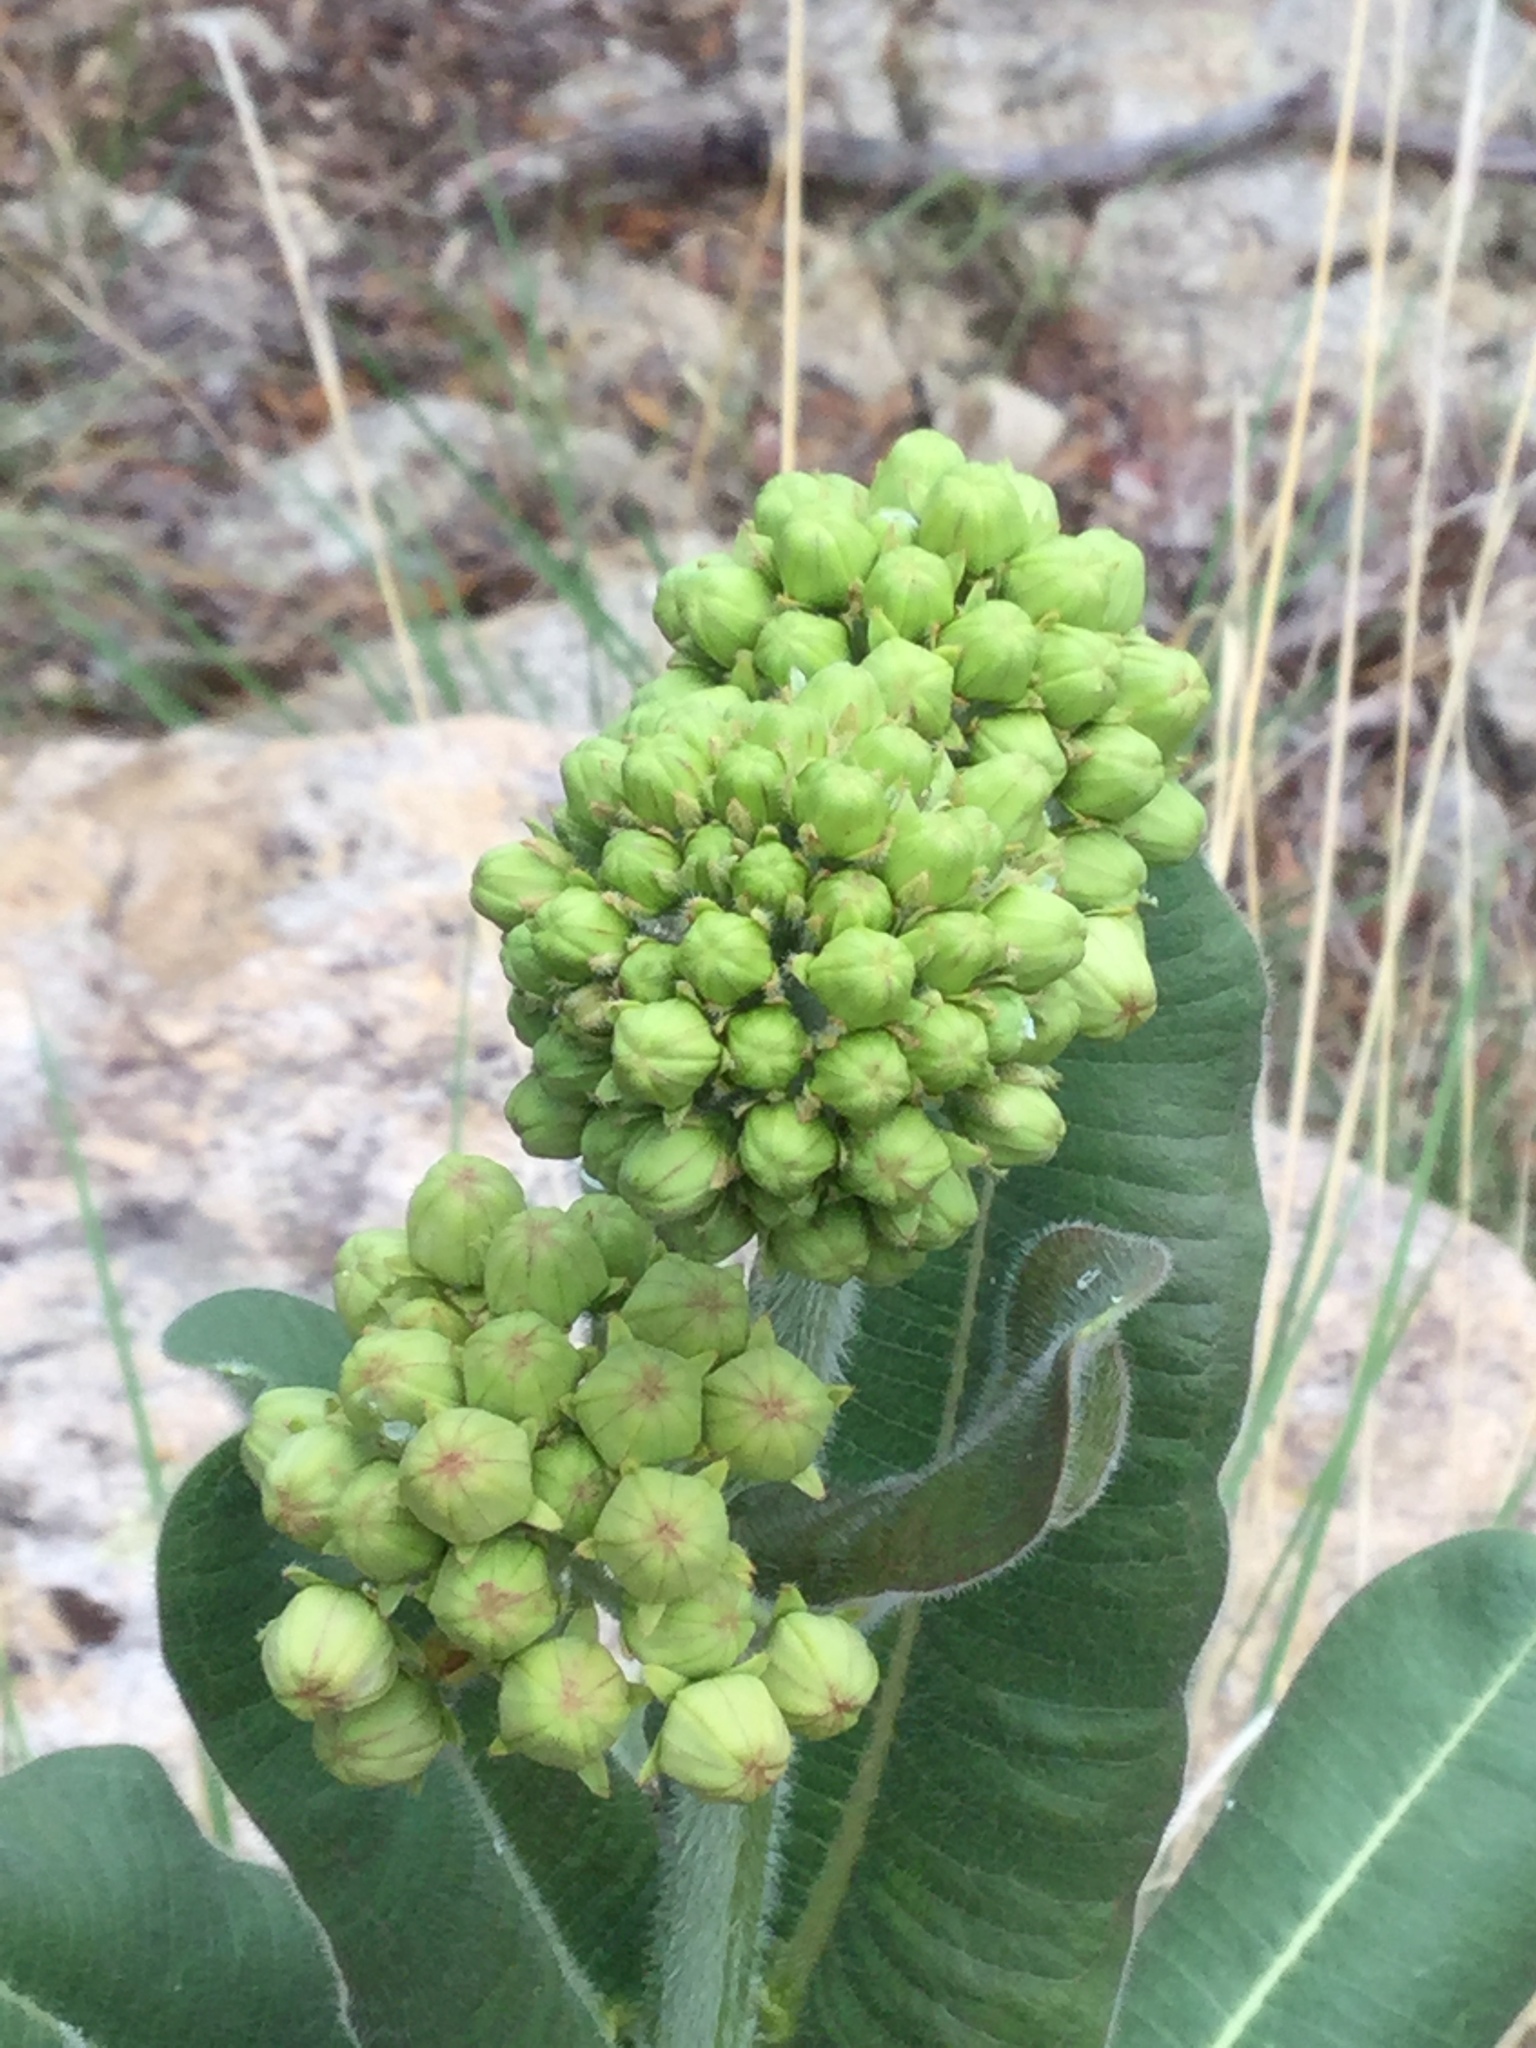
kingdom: Plantae
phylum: Tracheophyta
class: Magnoliopsida
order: Gentianales
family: Apocynaceae
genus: Asclepias
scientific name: Asclepias lemmonii
